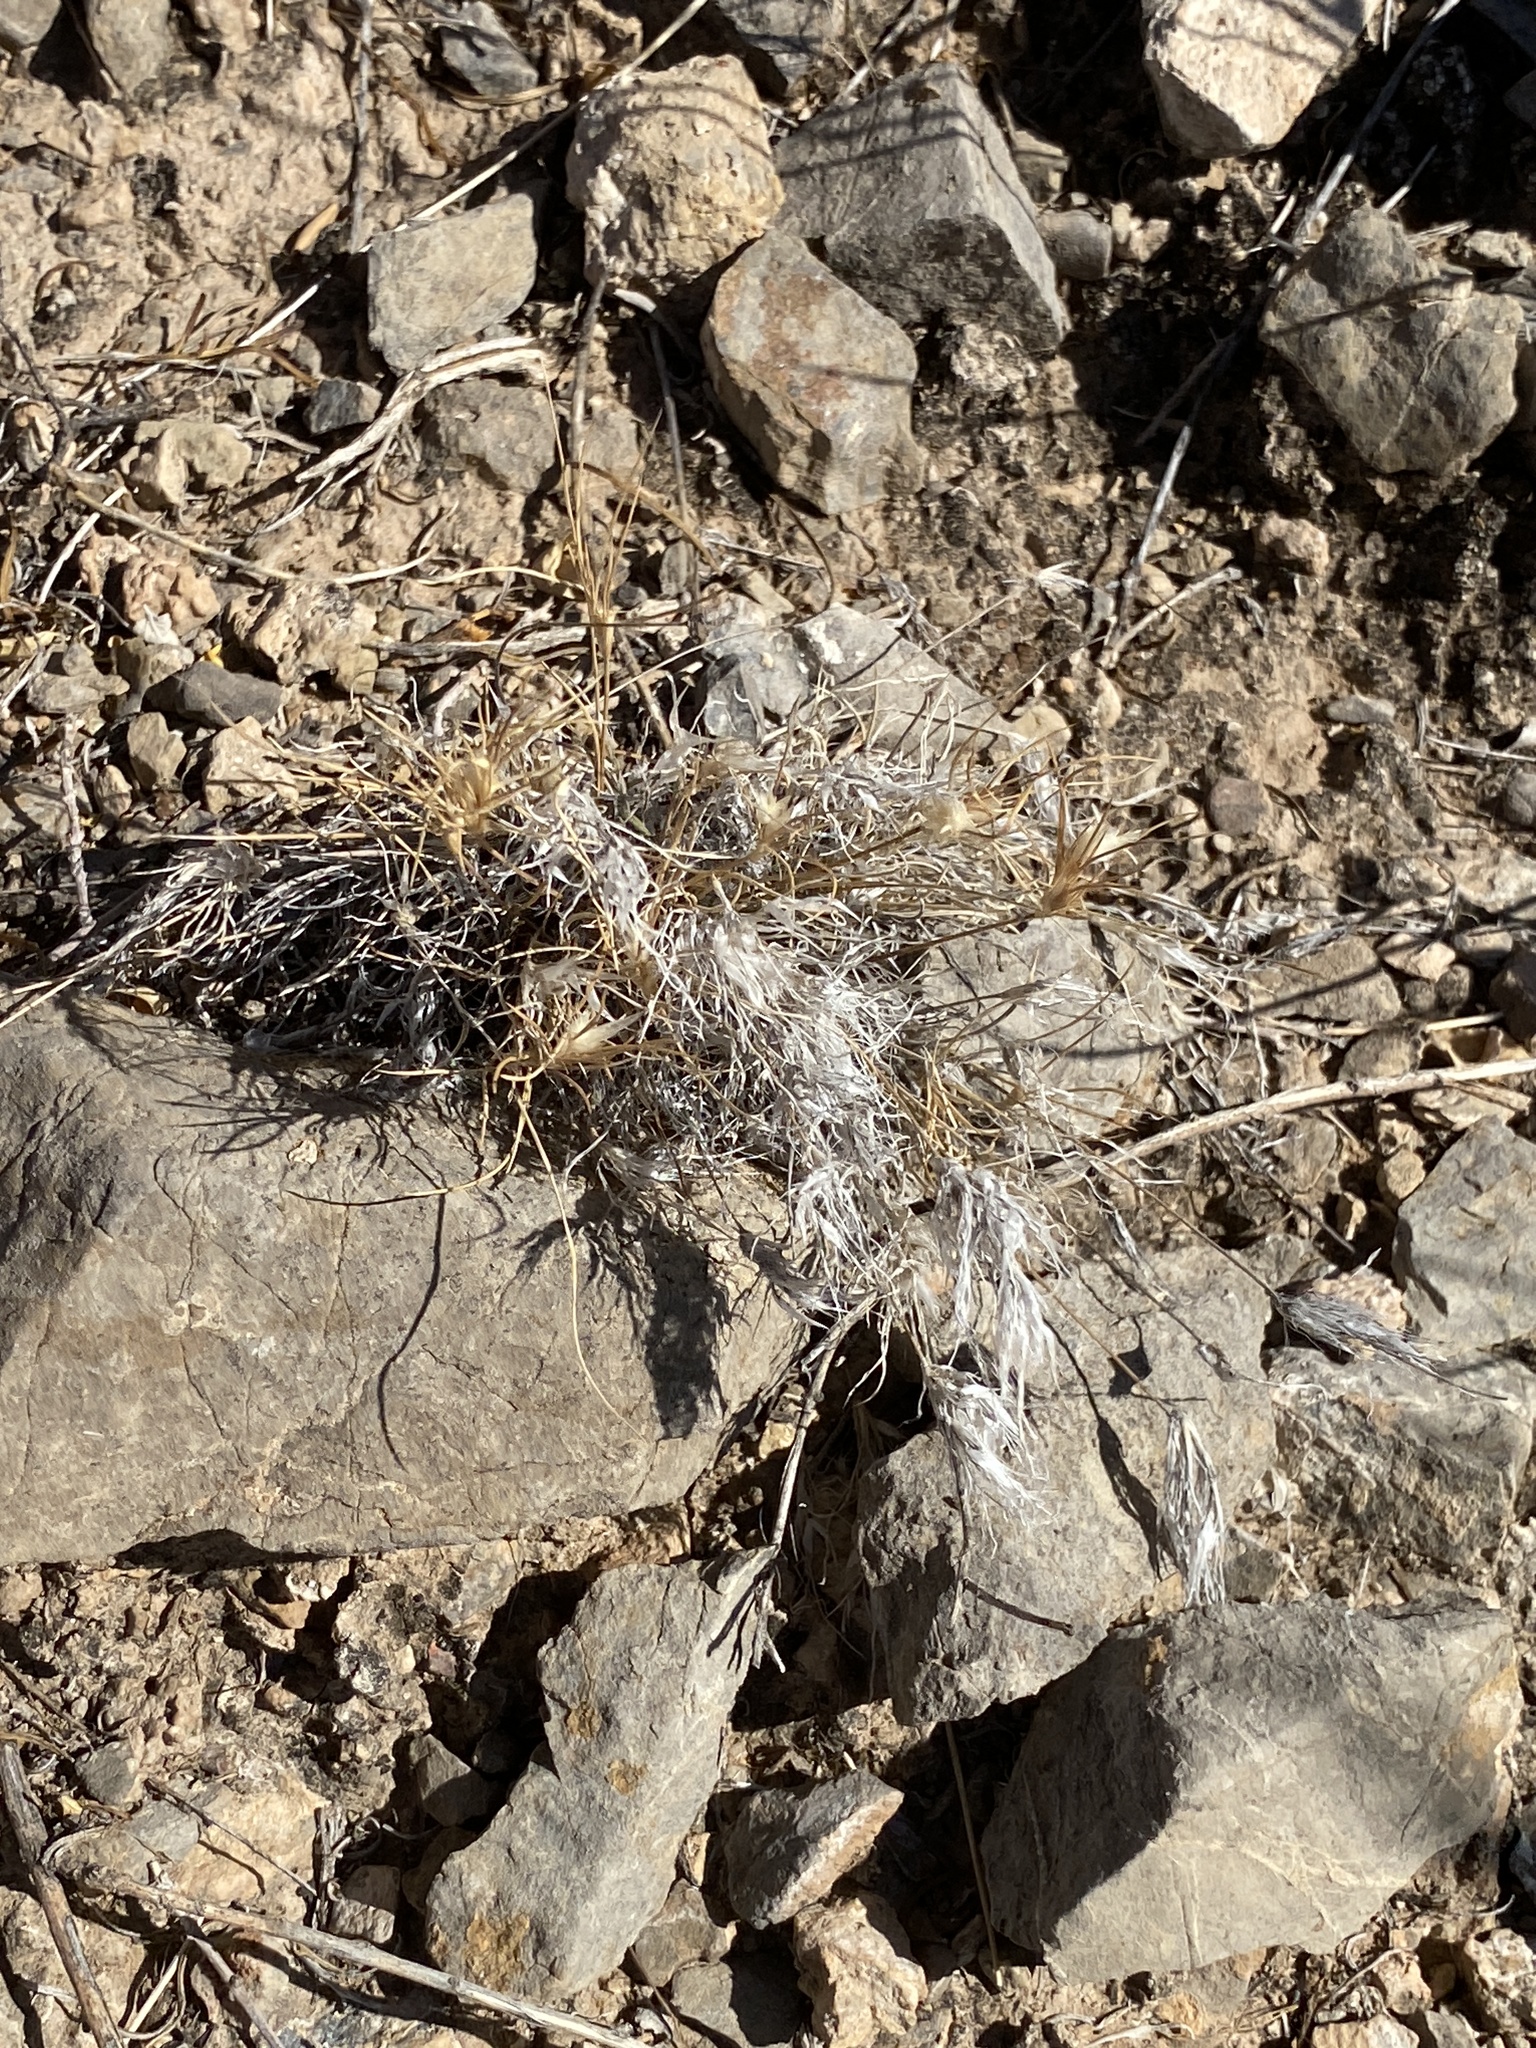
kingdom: Plantae
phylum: Tracheophyta
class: Liliopsida
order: Poales
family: Poaceae
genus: Dasyochloa
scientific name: Dasyochloa pulchella
